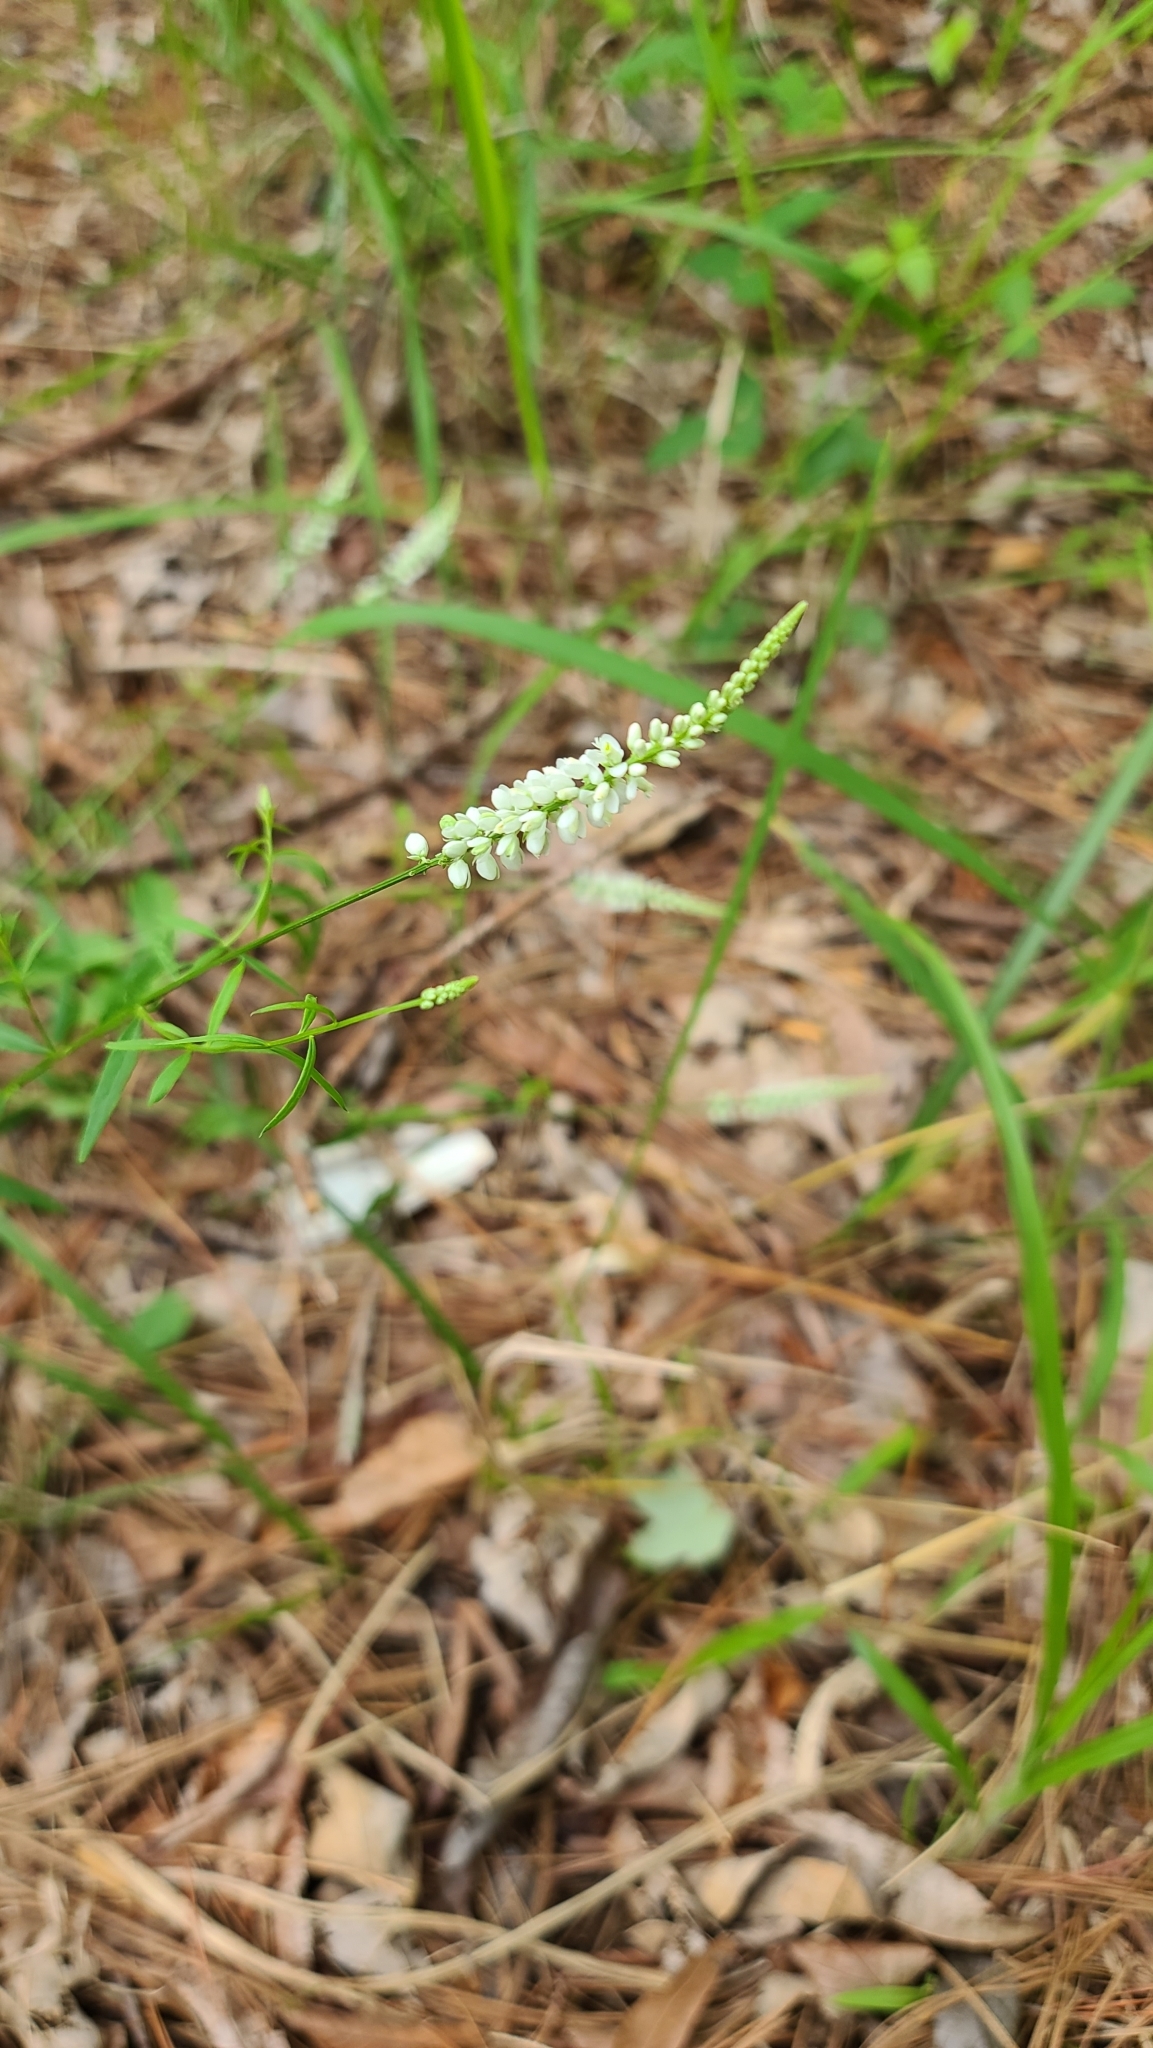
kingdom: Plantae
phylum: Tracheophyta
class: Magnoliopsida
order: Fabales
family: Polygalaceae
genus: Polygala
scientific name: Polygala boykinii
